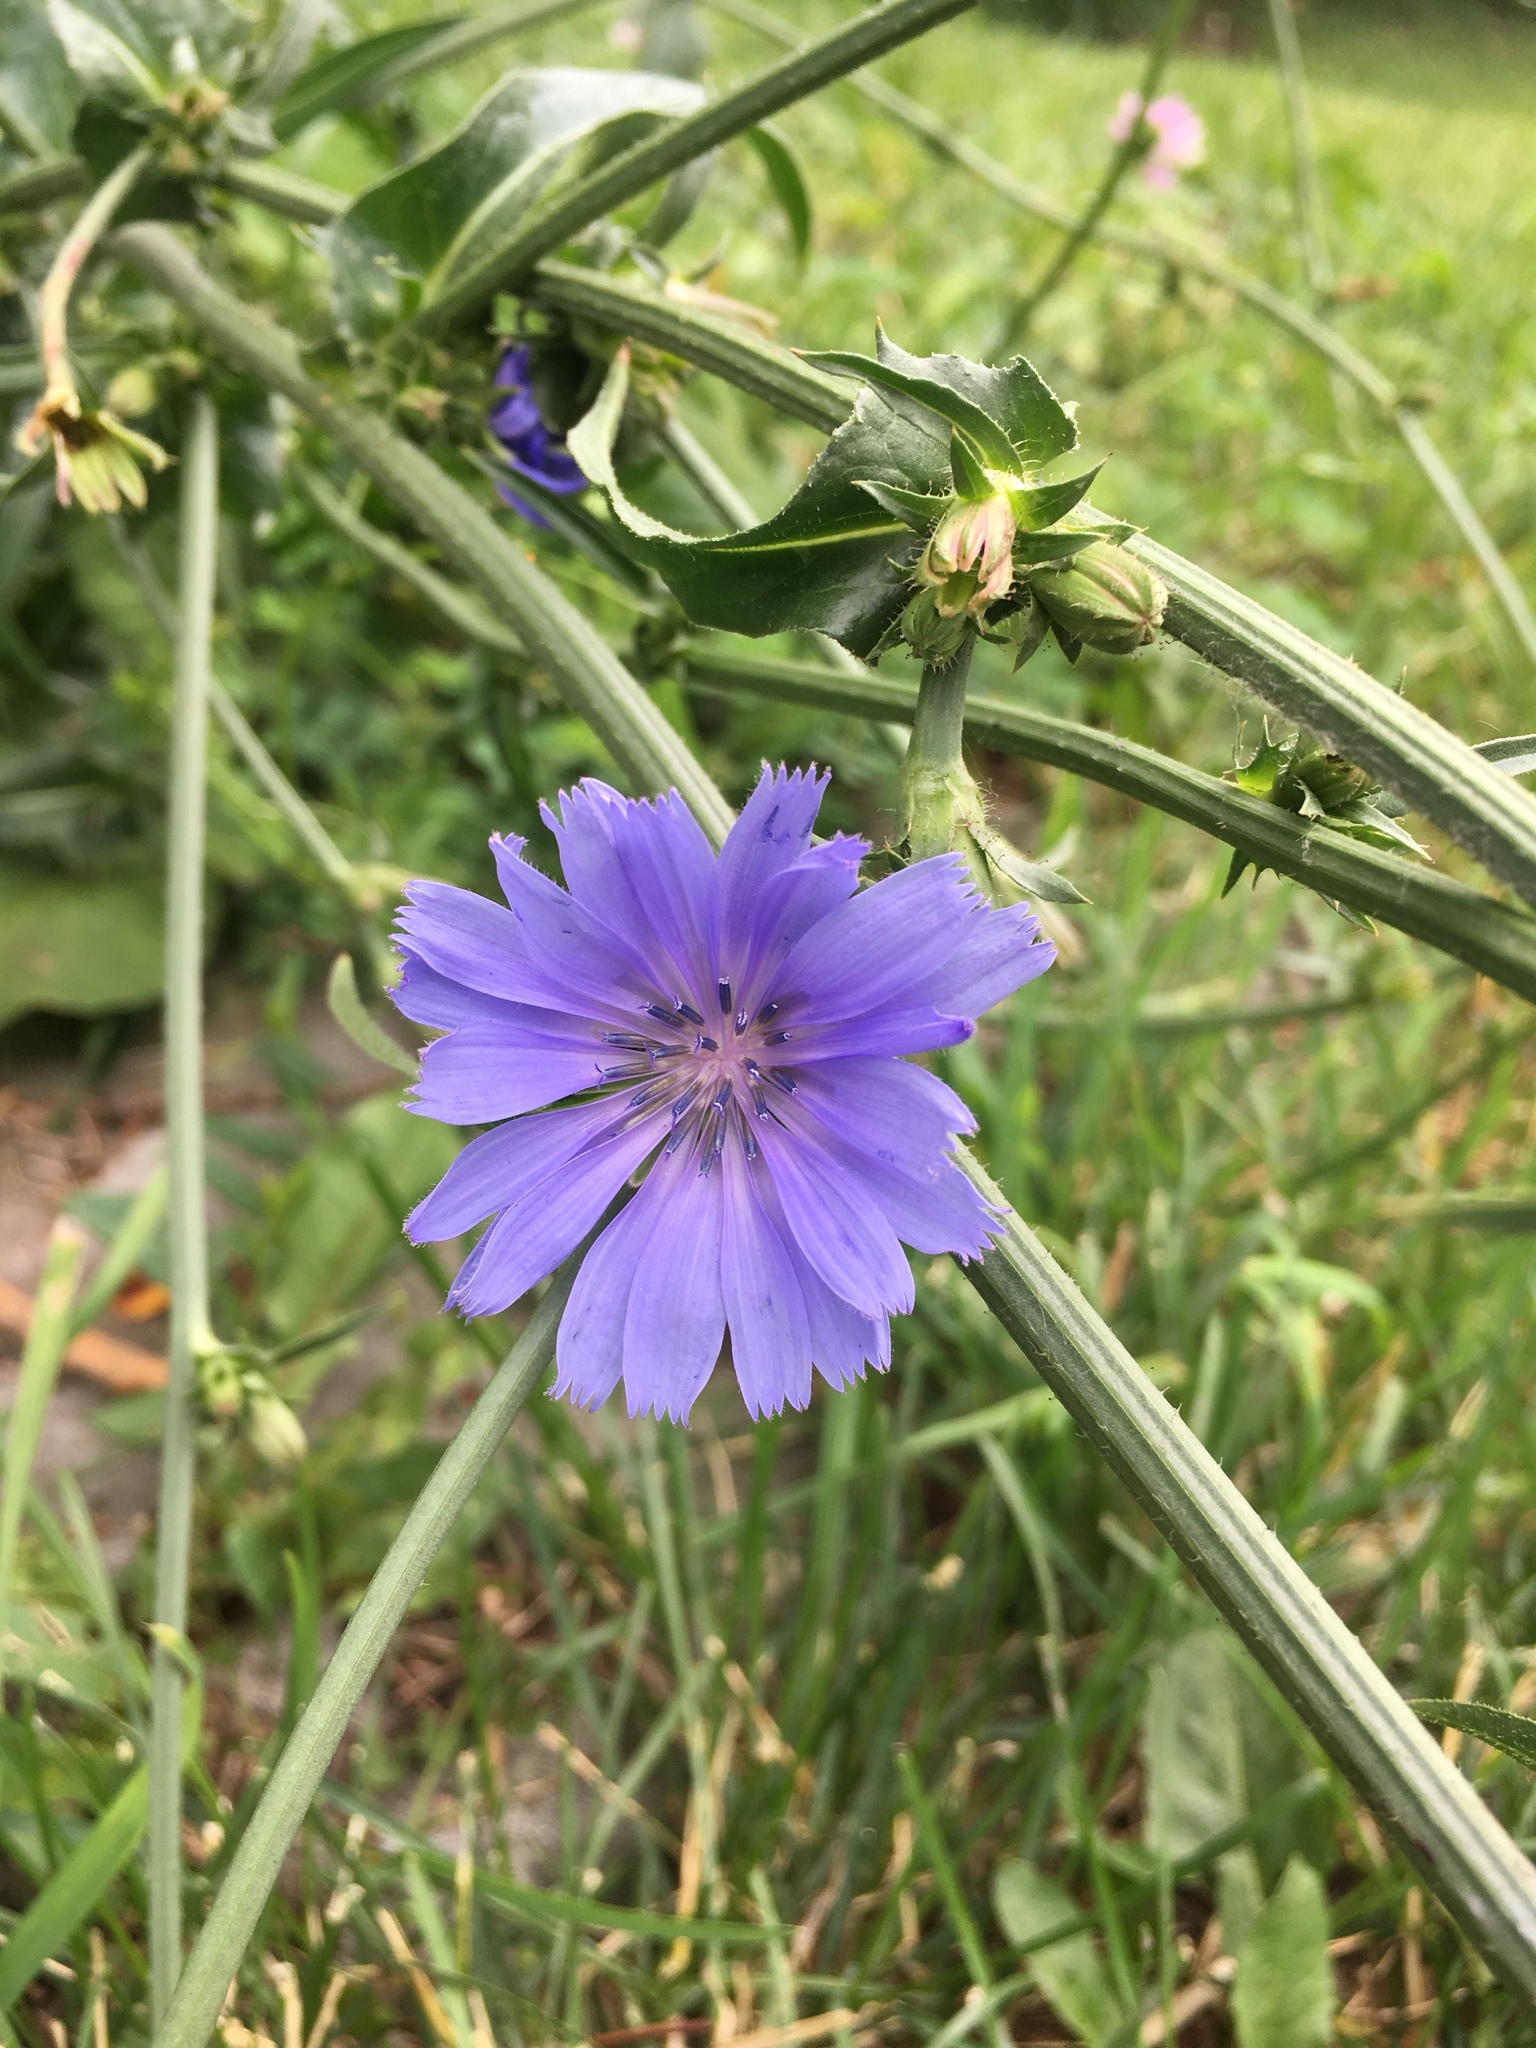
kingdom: Plantae
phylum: Tracheophyta
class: Magnoliopsida
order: Asterales
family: Asteraceae
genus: Cichorium
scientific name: Cichorium intybus
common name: Chicory
